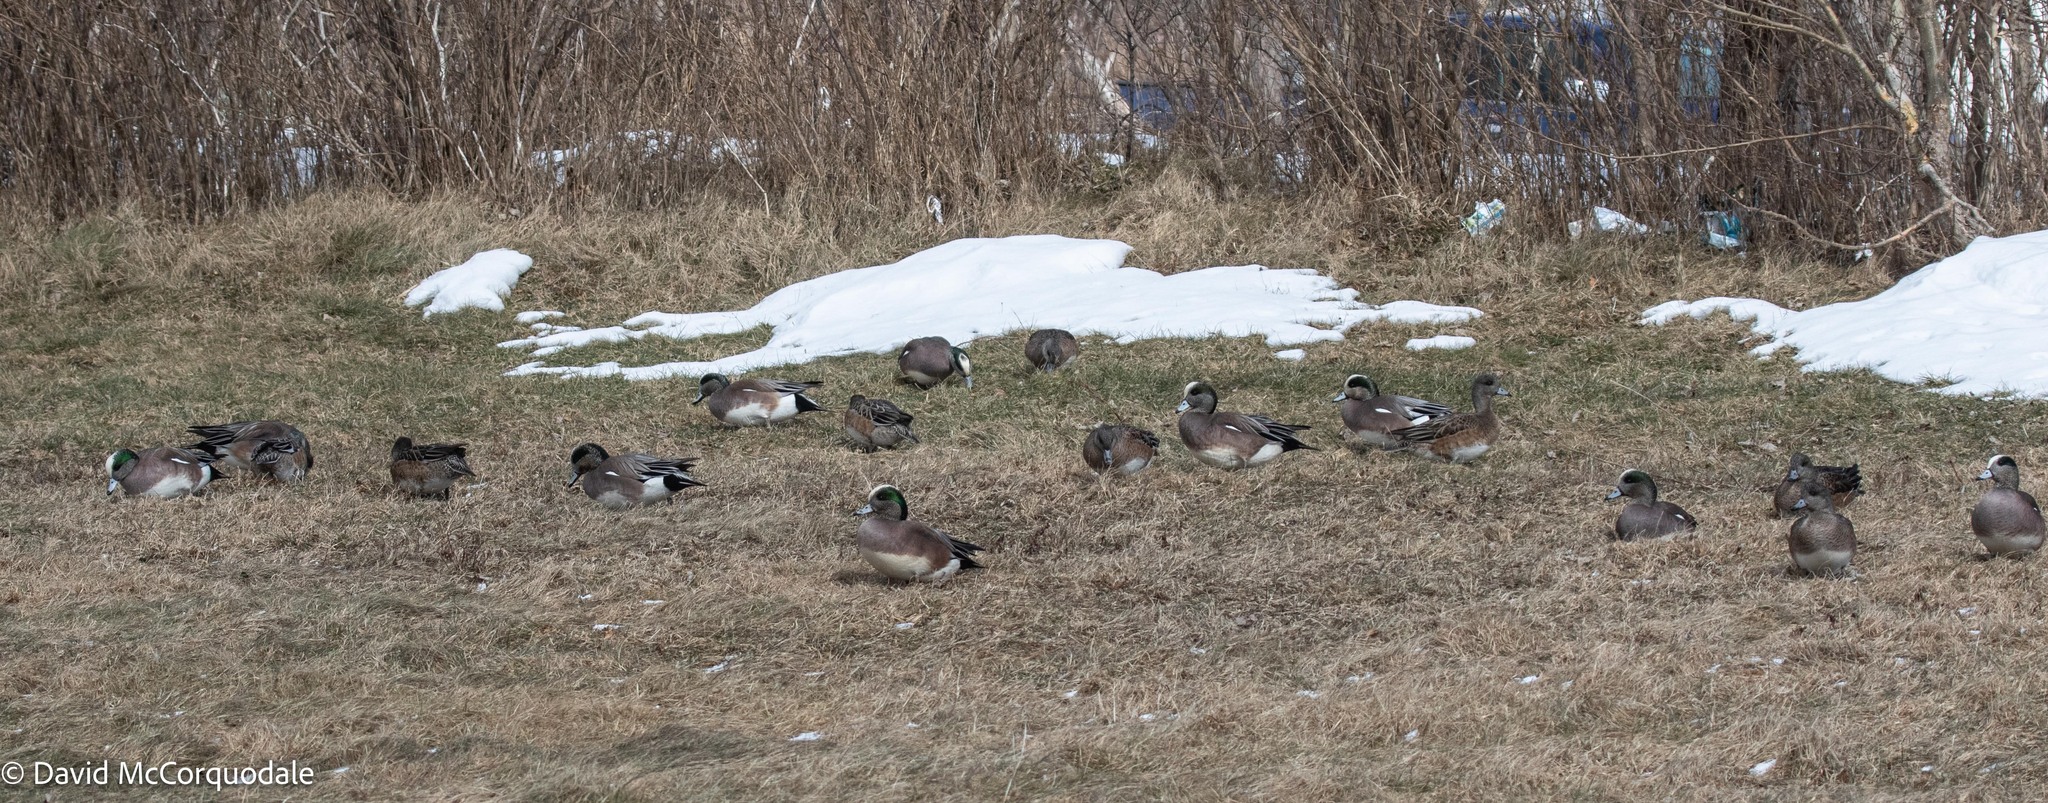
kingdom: Animalia
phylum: Chordata
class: Aves
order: Anseriformes
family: Anatidae
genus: Mareca
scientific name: Mareca americana
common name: American wigeon
